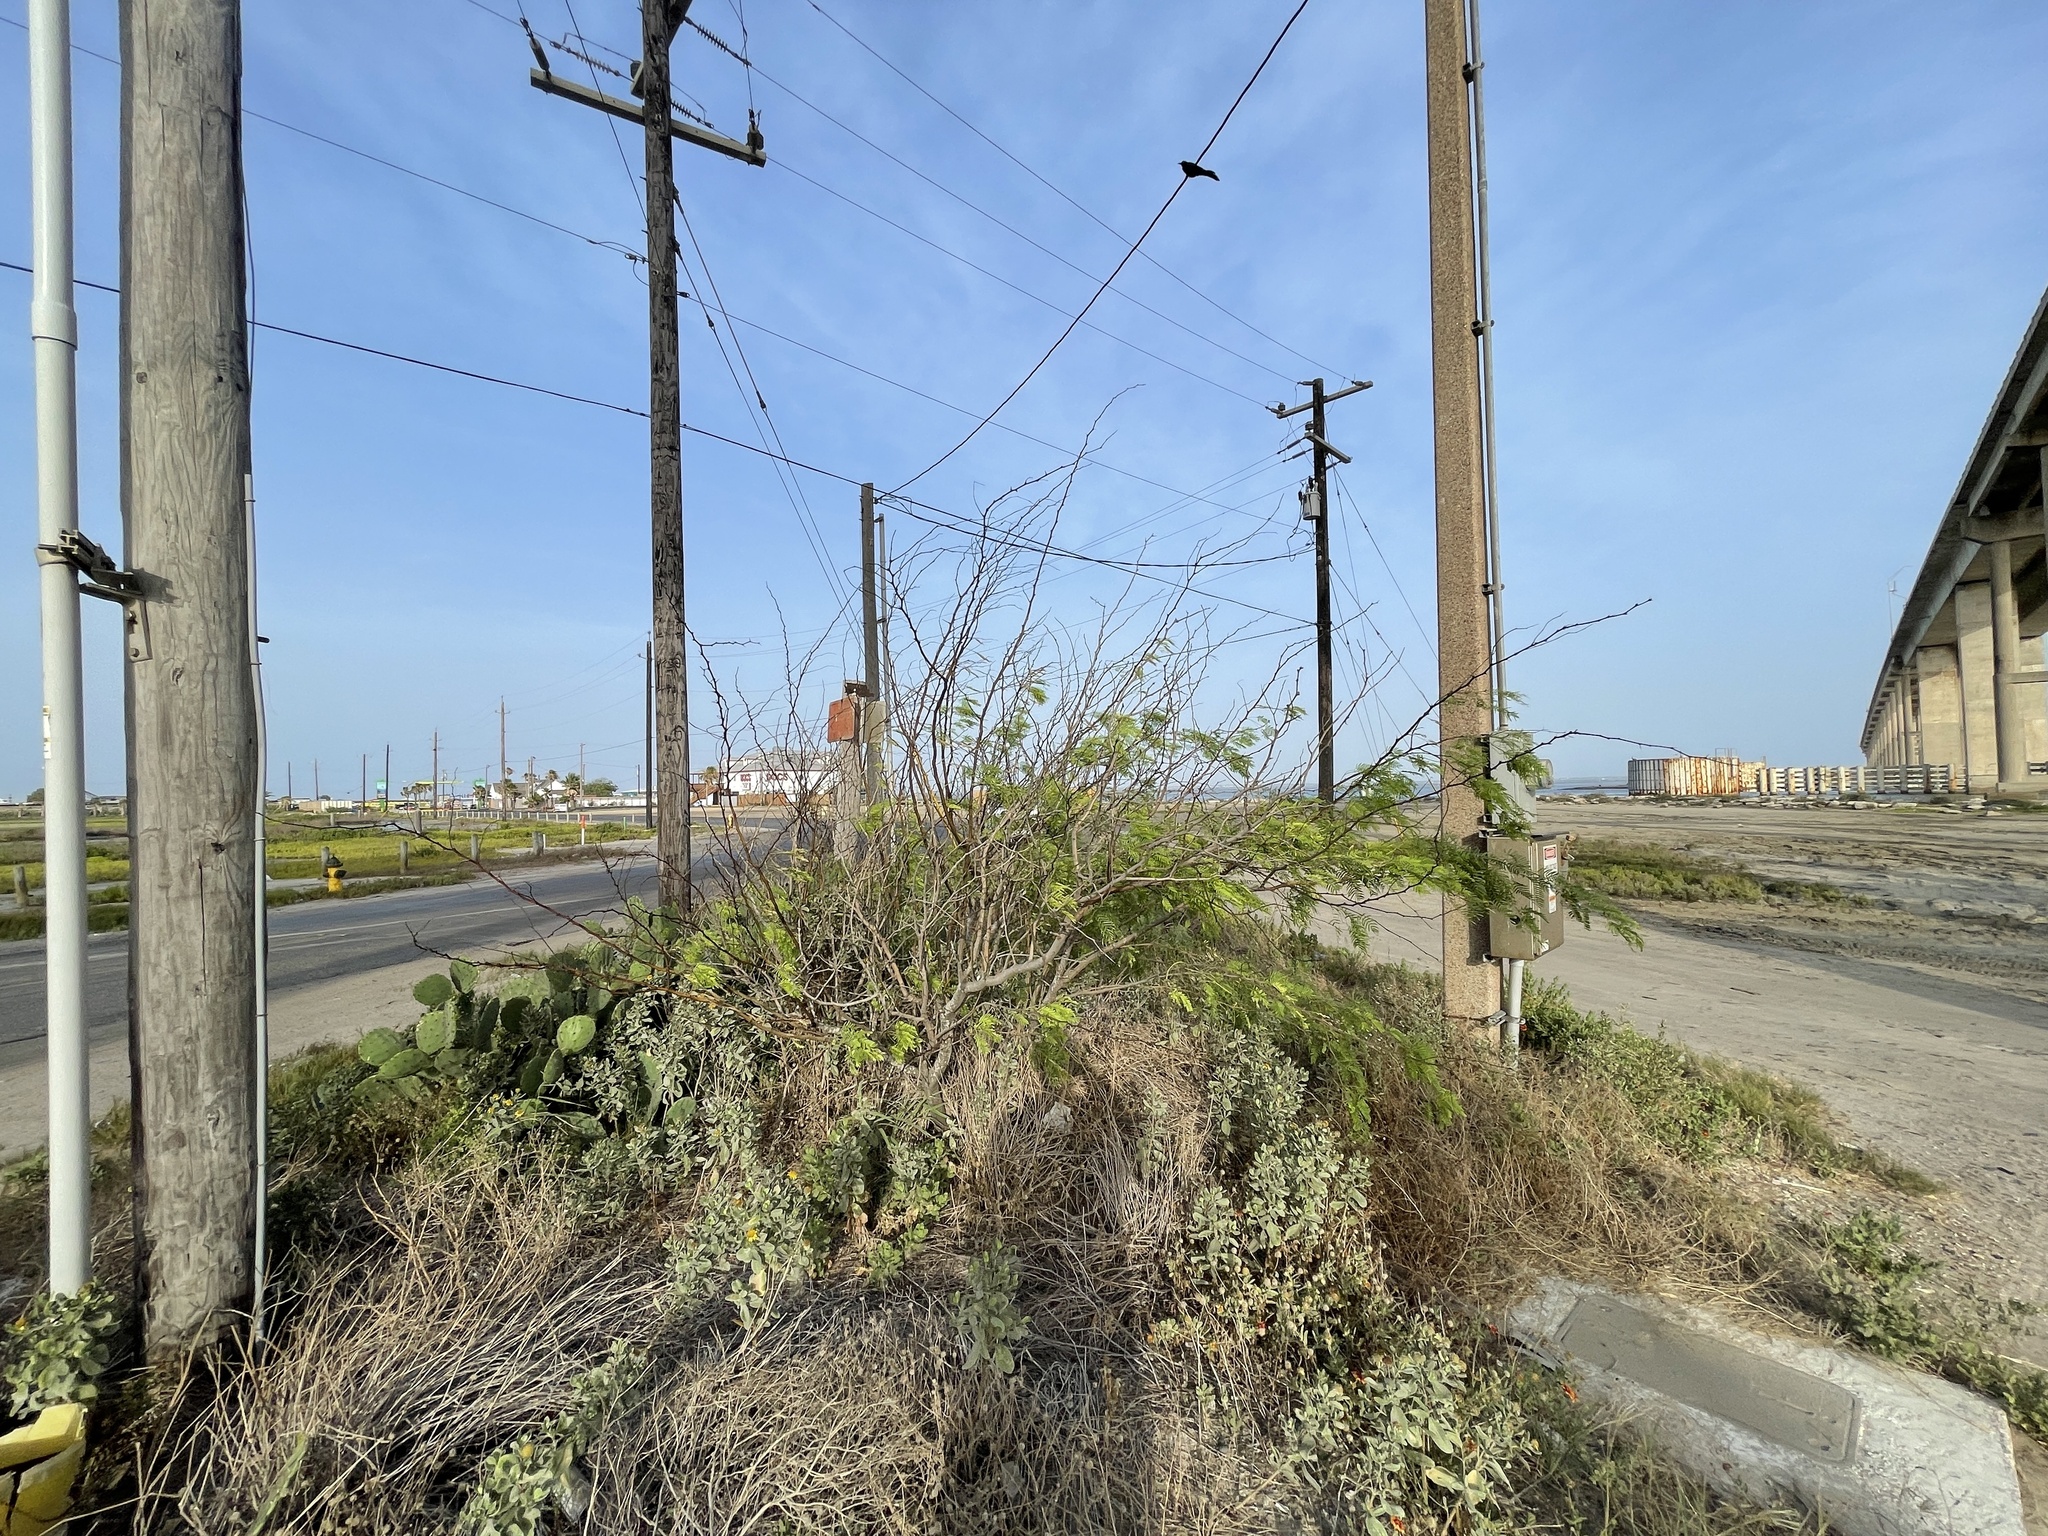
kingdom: Plantae
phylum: Tracheophyta
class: Magnoliopsida
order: Fabales
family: Fabaceae
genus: Prosopis
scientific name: Prosopis glandulosa
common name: Honey mesquite
